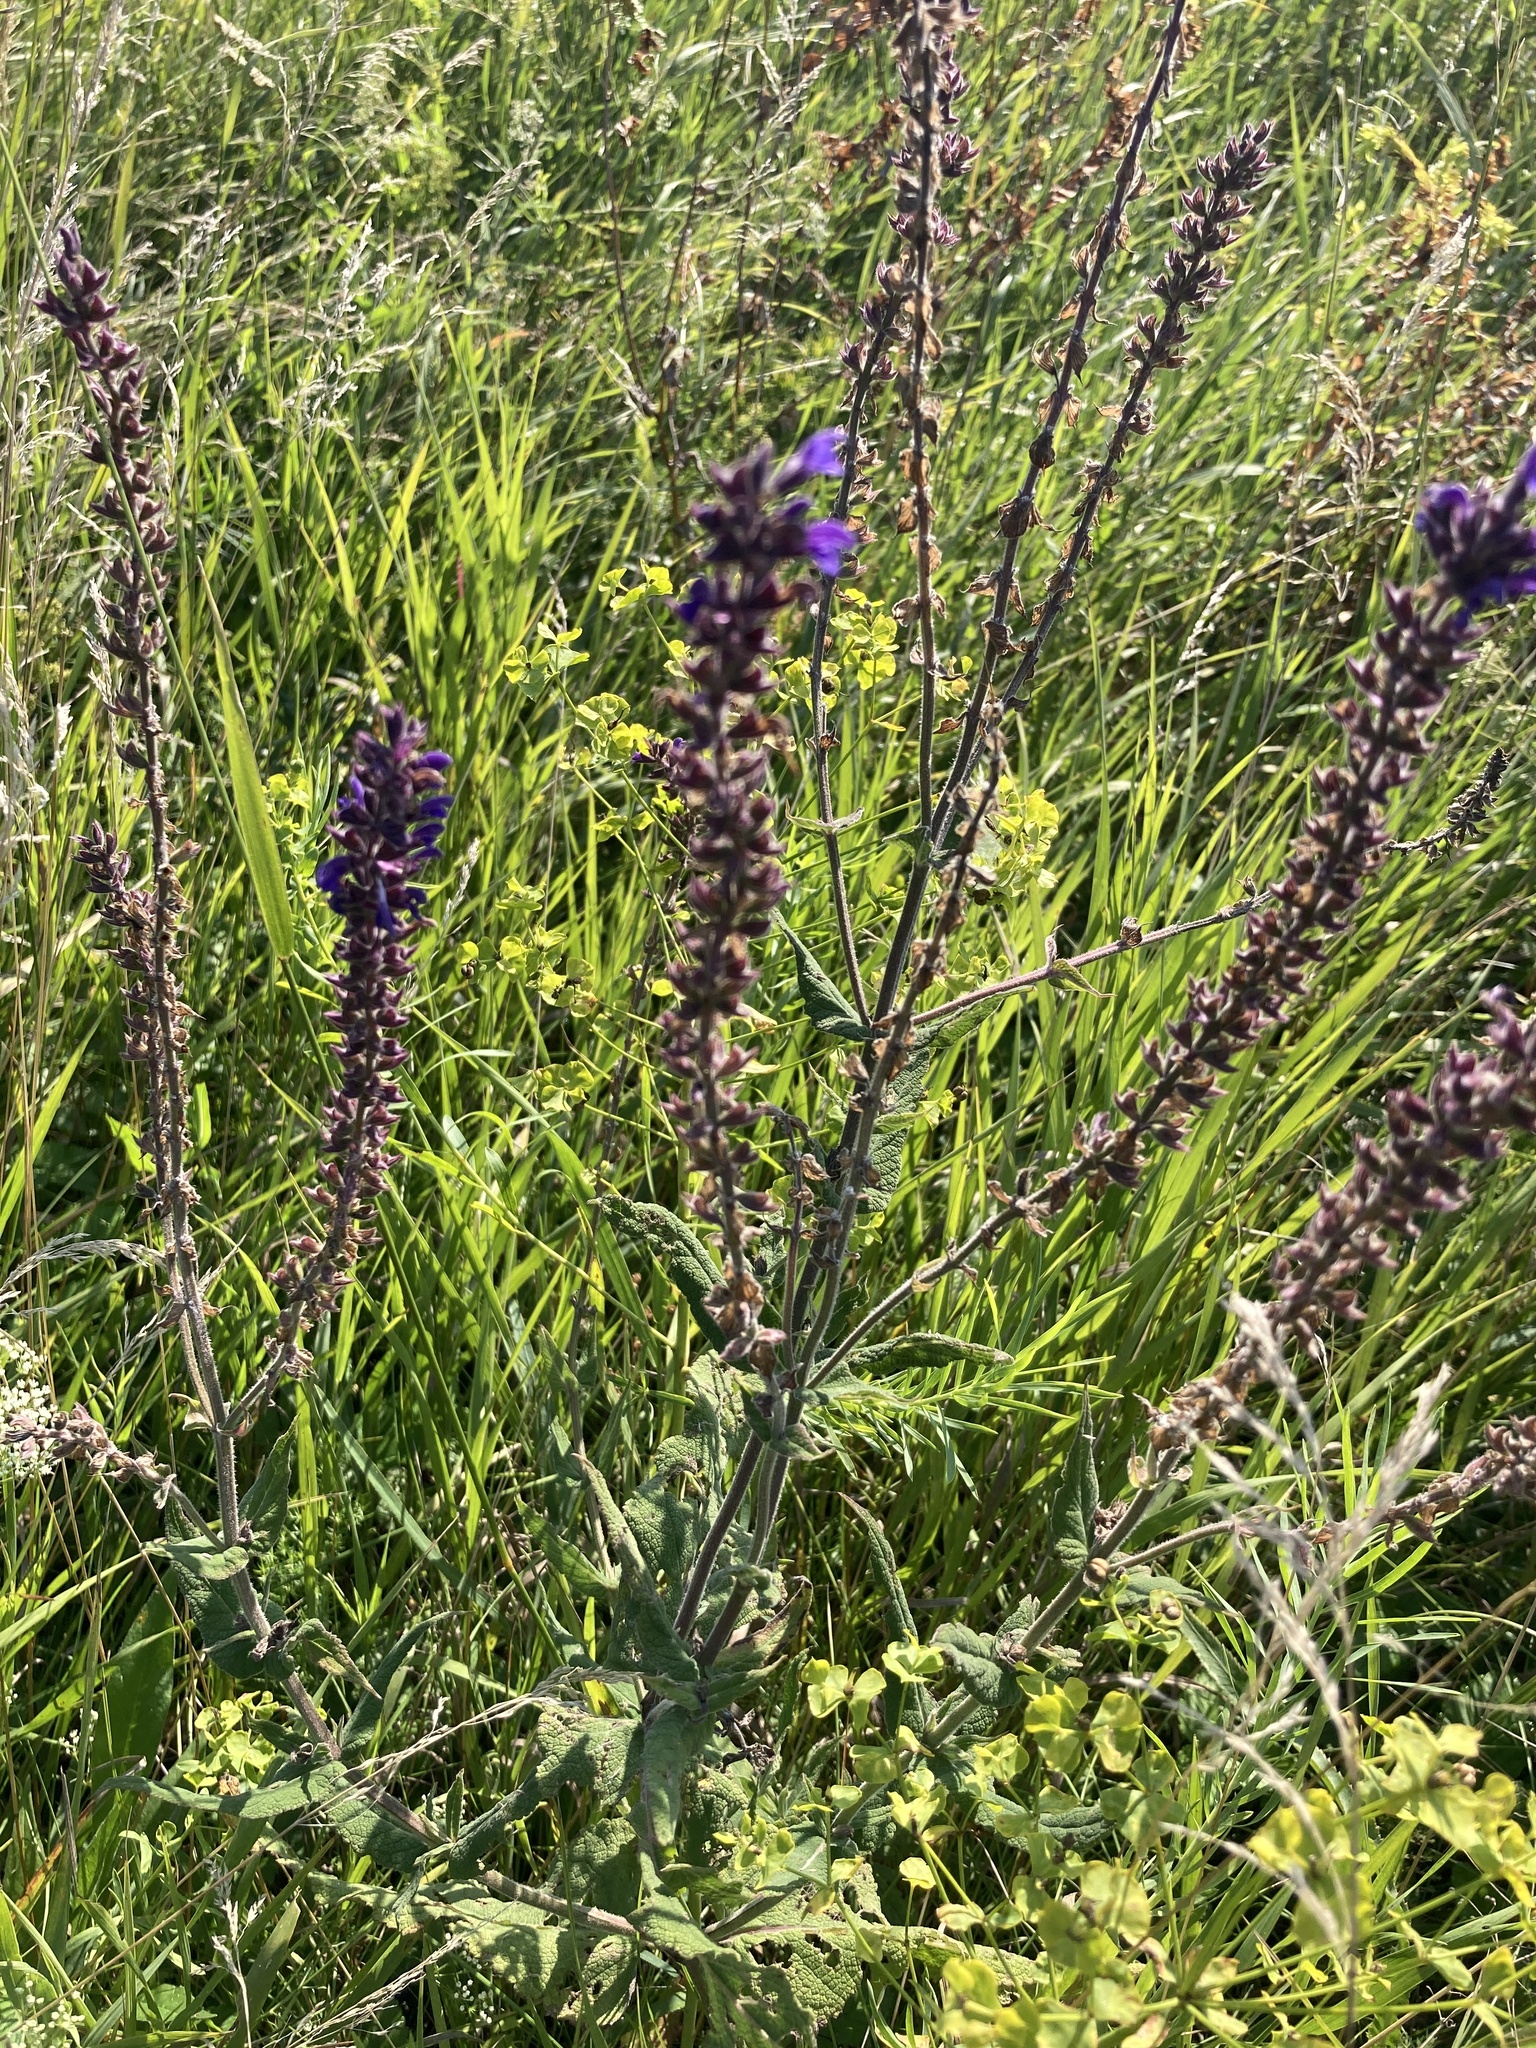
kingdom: Plantae
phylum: Tracheophyta
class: Magnoliopsida
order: Lamiales
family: Lamiaceae
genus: Salvia
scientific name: Salvia nemorosa
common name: Balkan clary
